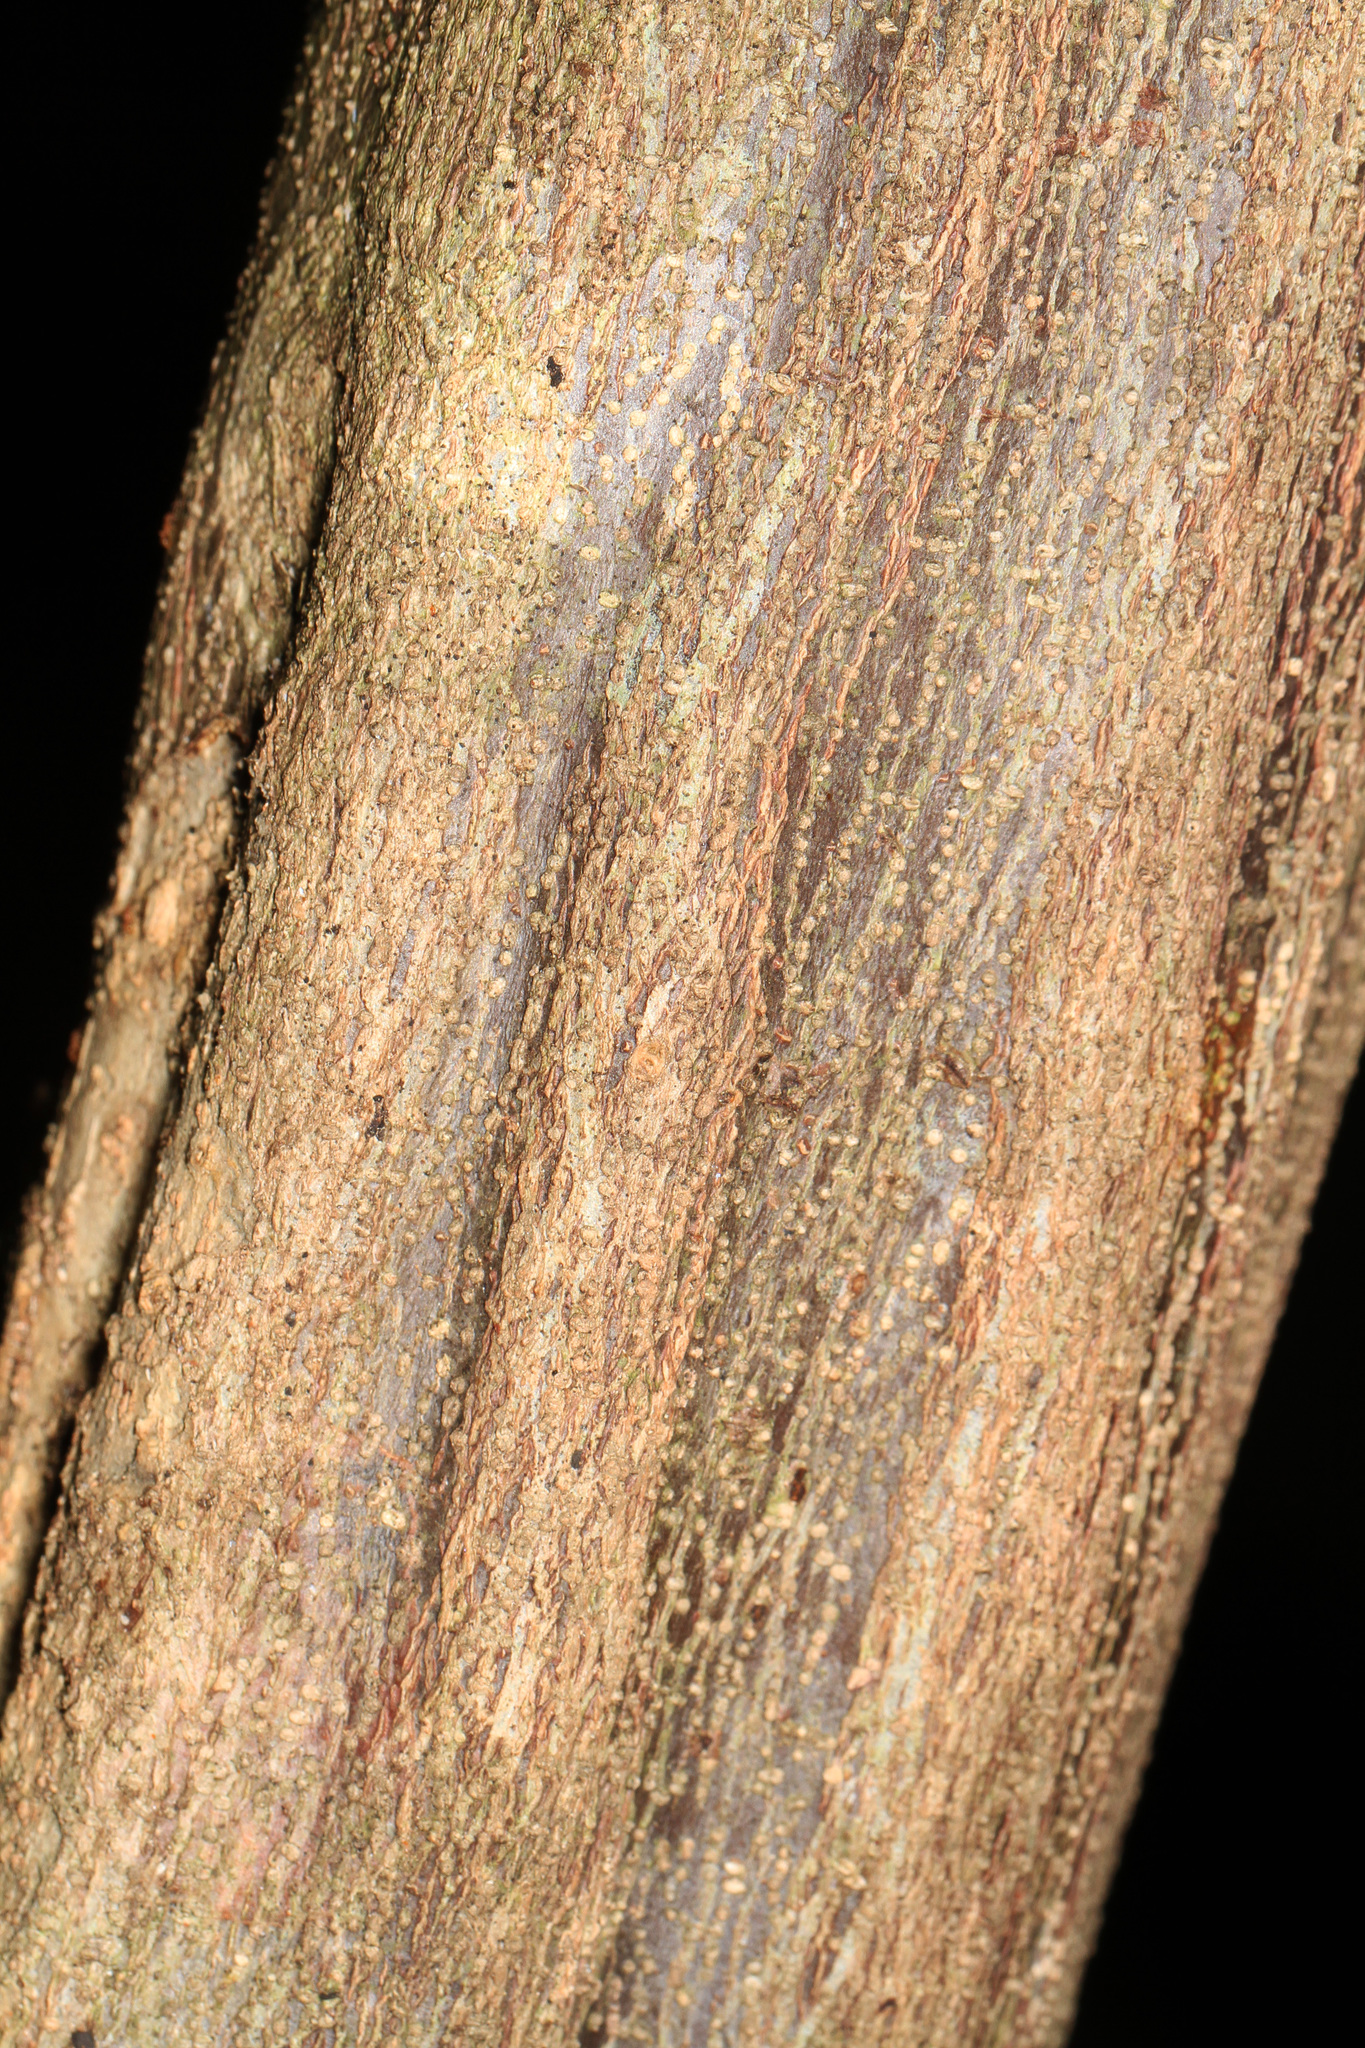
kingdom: Plantae
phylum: Tracheophyta
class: Magnoliopsida
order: Malpighiales
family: Euphorbiaceae
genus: Gymnanthes
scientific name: Gymnanthes lucida
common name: Oysterwood
